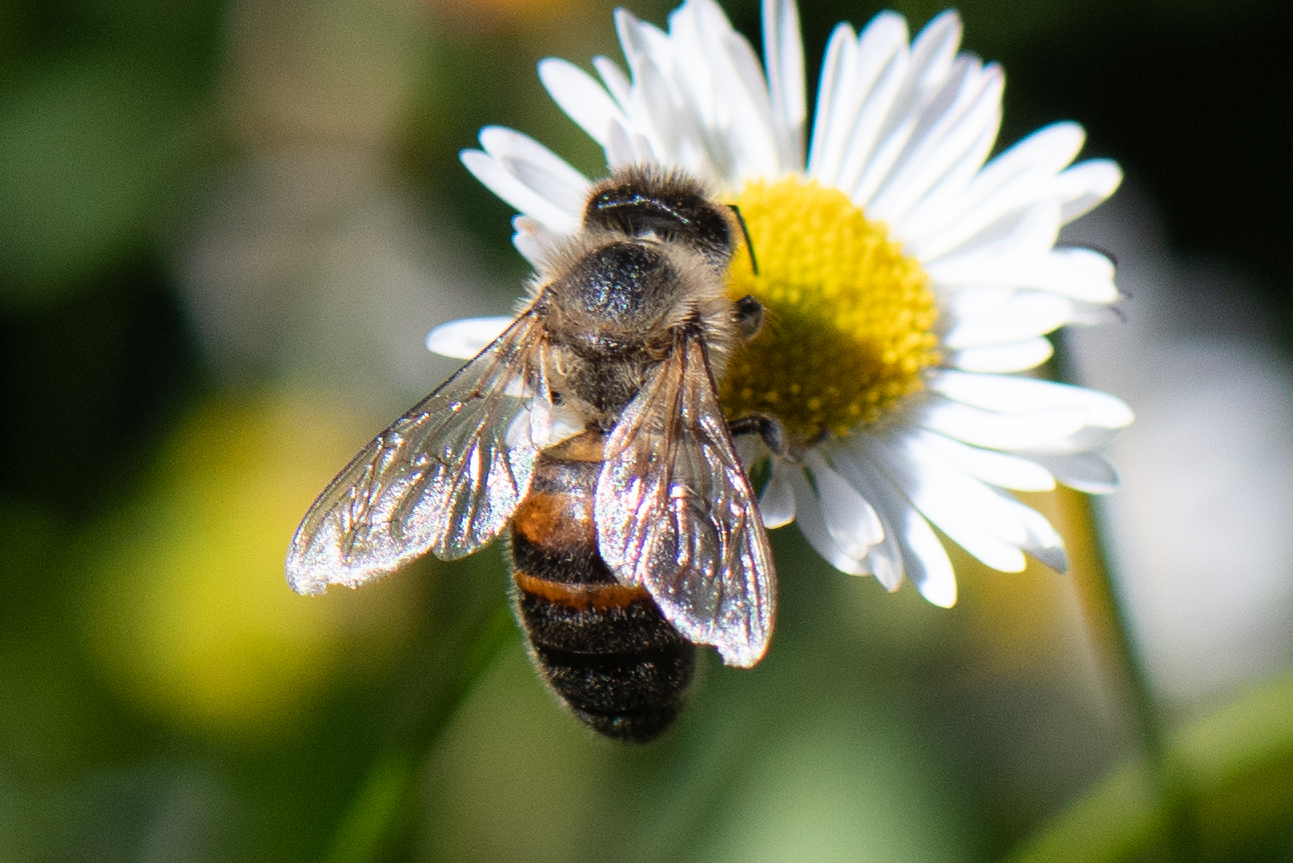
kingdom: Animalia
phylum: Arthropoda
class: Insecta
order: Hymenoptera
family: Apidae
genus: Apis
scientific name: Apis mellifera
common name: Honey bee
